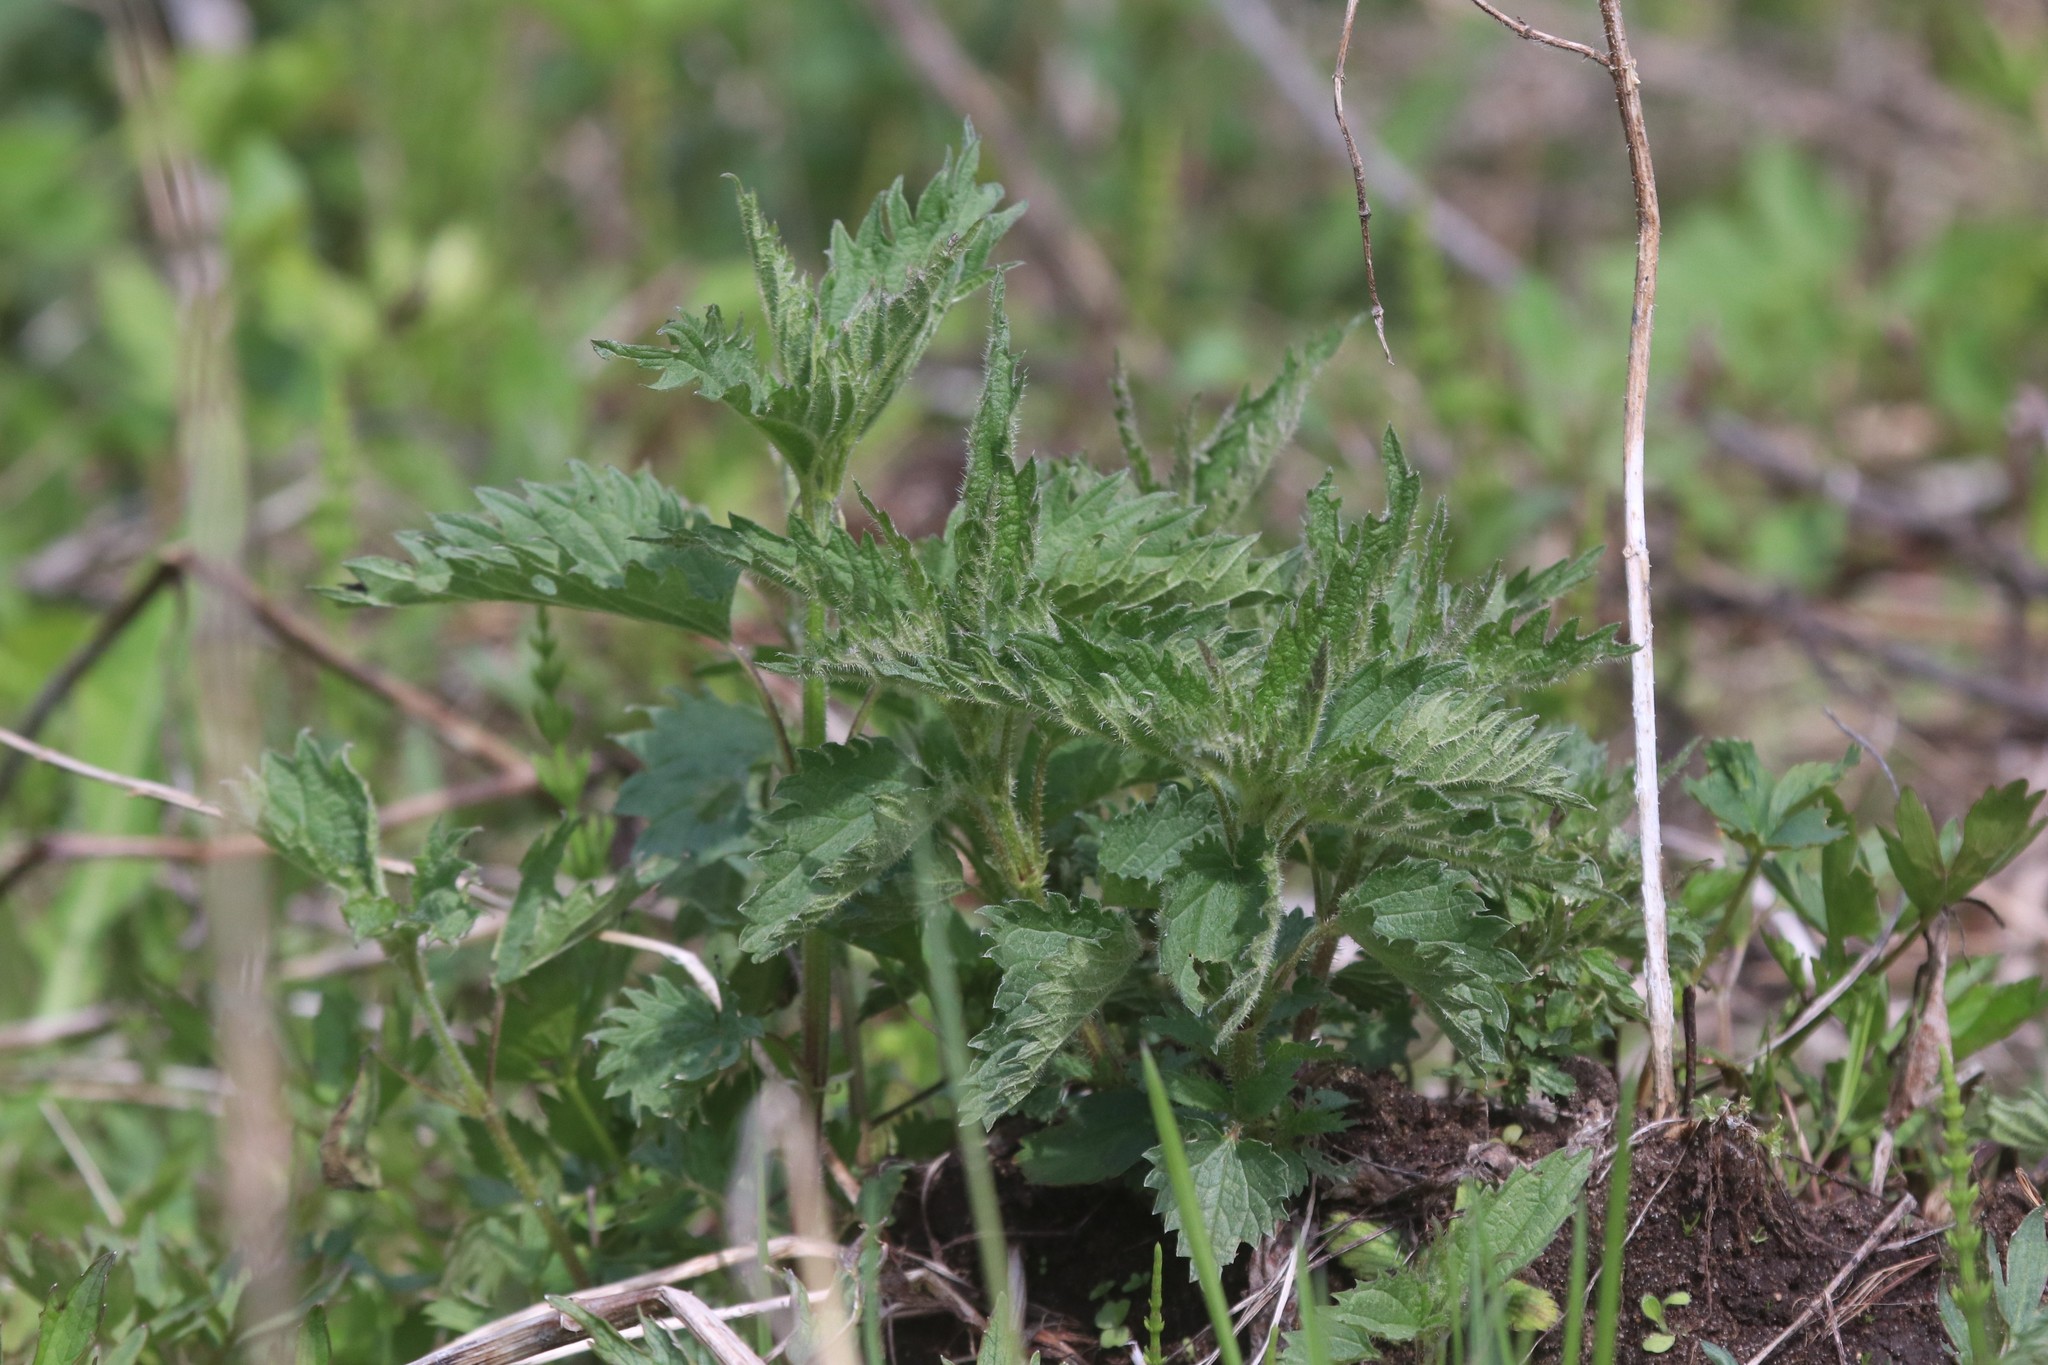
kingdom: Plantae
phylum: Tracheophyta
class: Magnoliopsida
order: Rosales
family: Urticaceae
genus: Urtica
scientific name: Urtica dioica
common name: Common nettle
